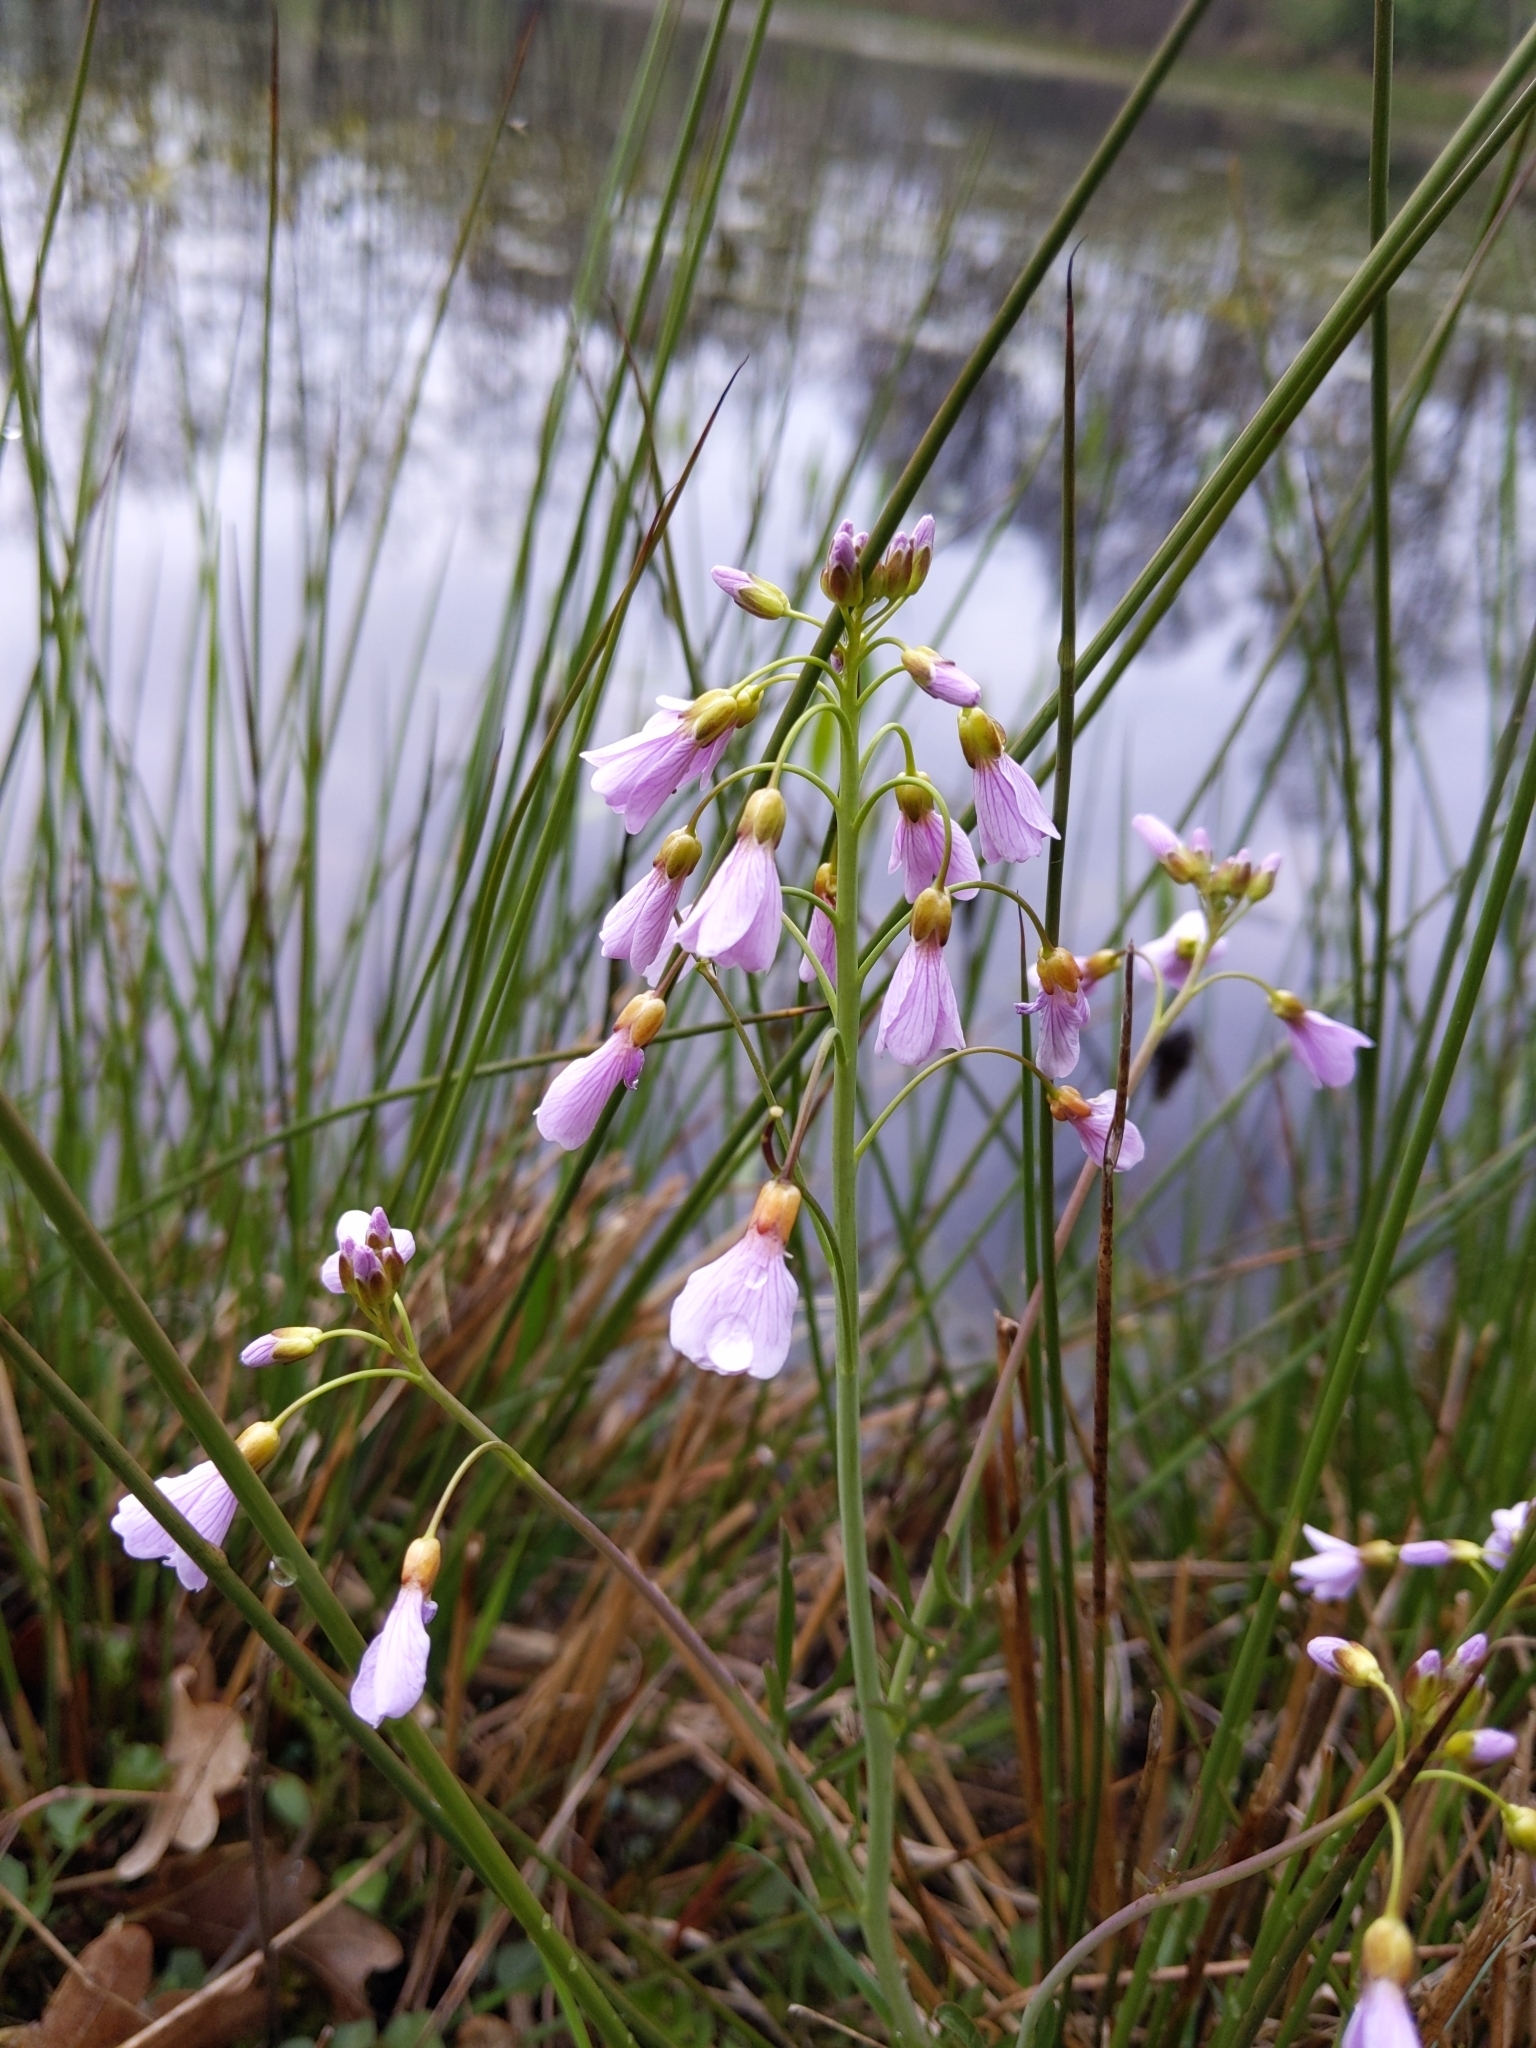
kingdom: Plantae
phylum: Tracheophyta
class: Magnoliopsida
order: Brassicales
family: Brassicaceae
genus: Cardamine
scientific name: Cardamine pratensis
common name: Cuckoo flower
